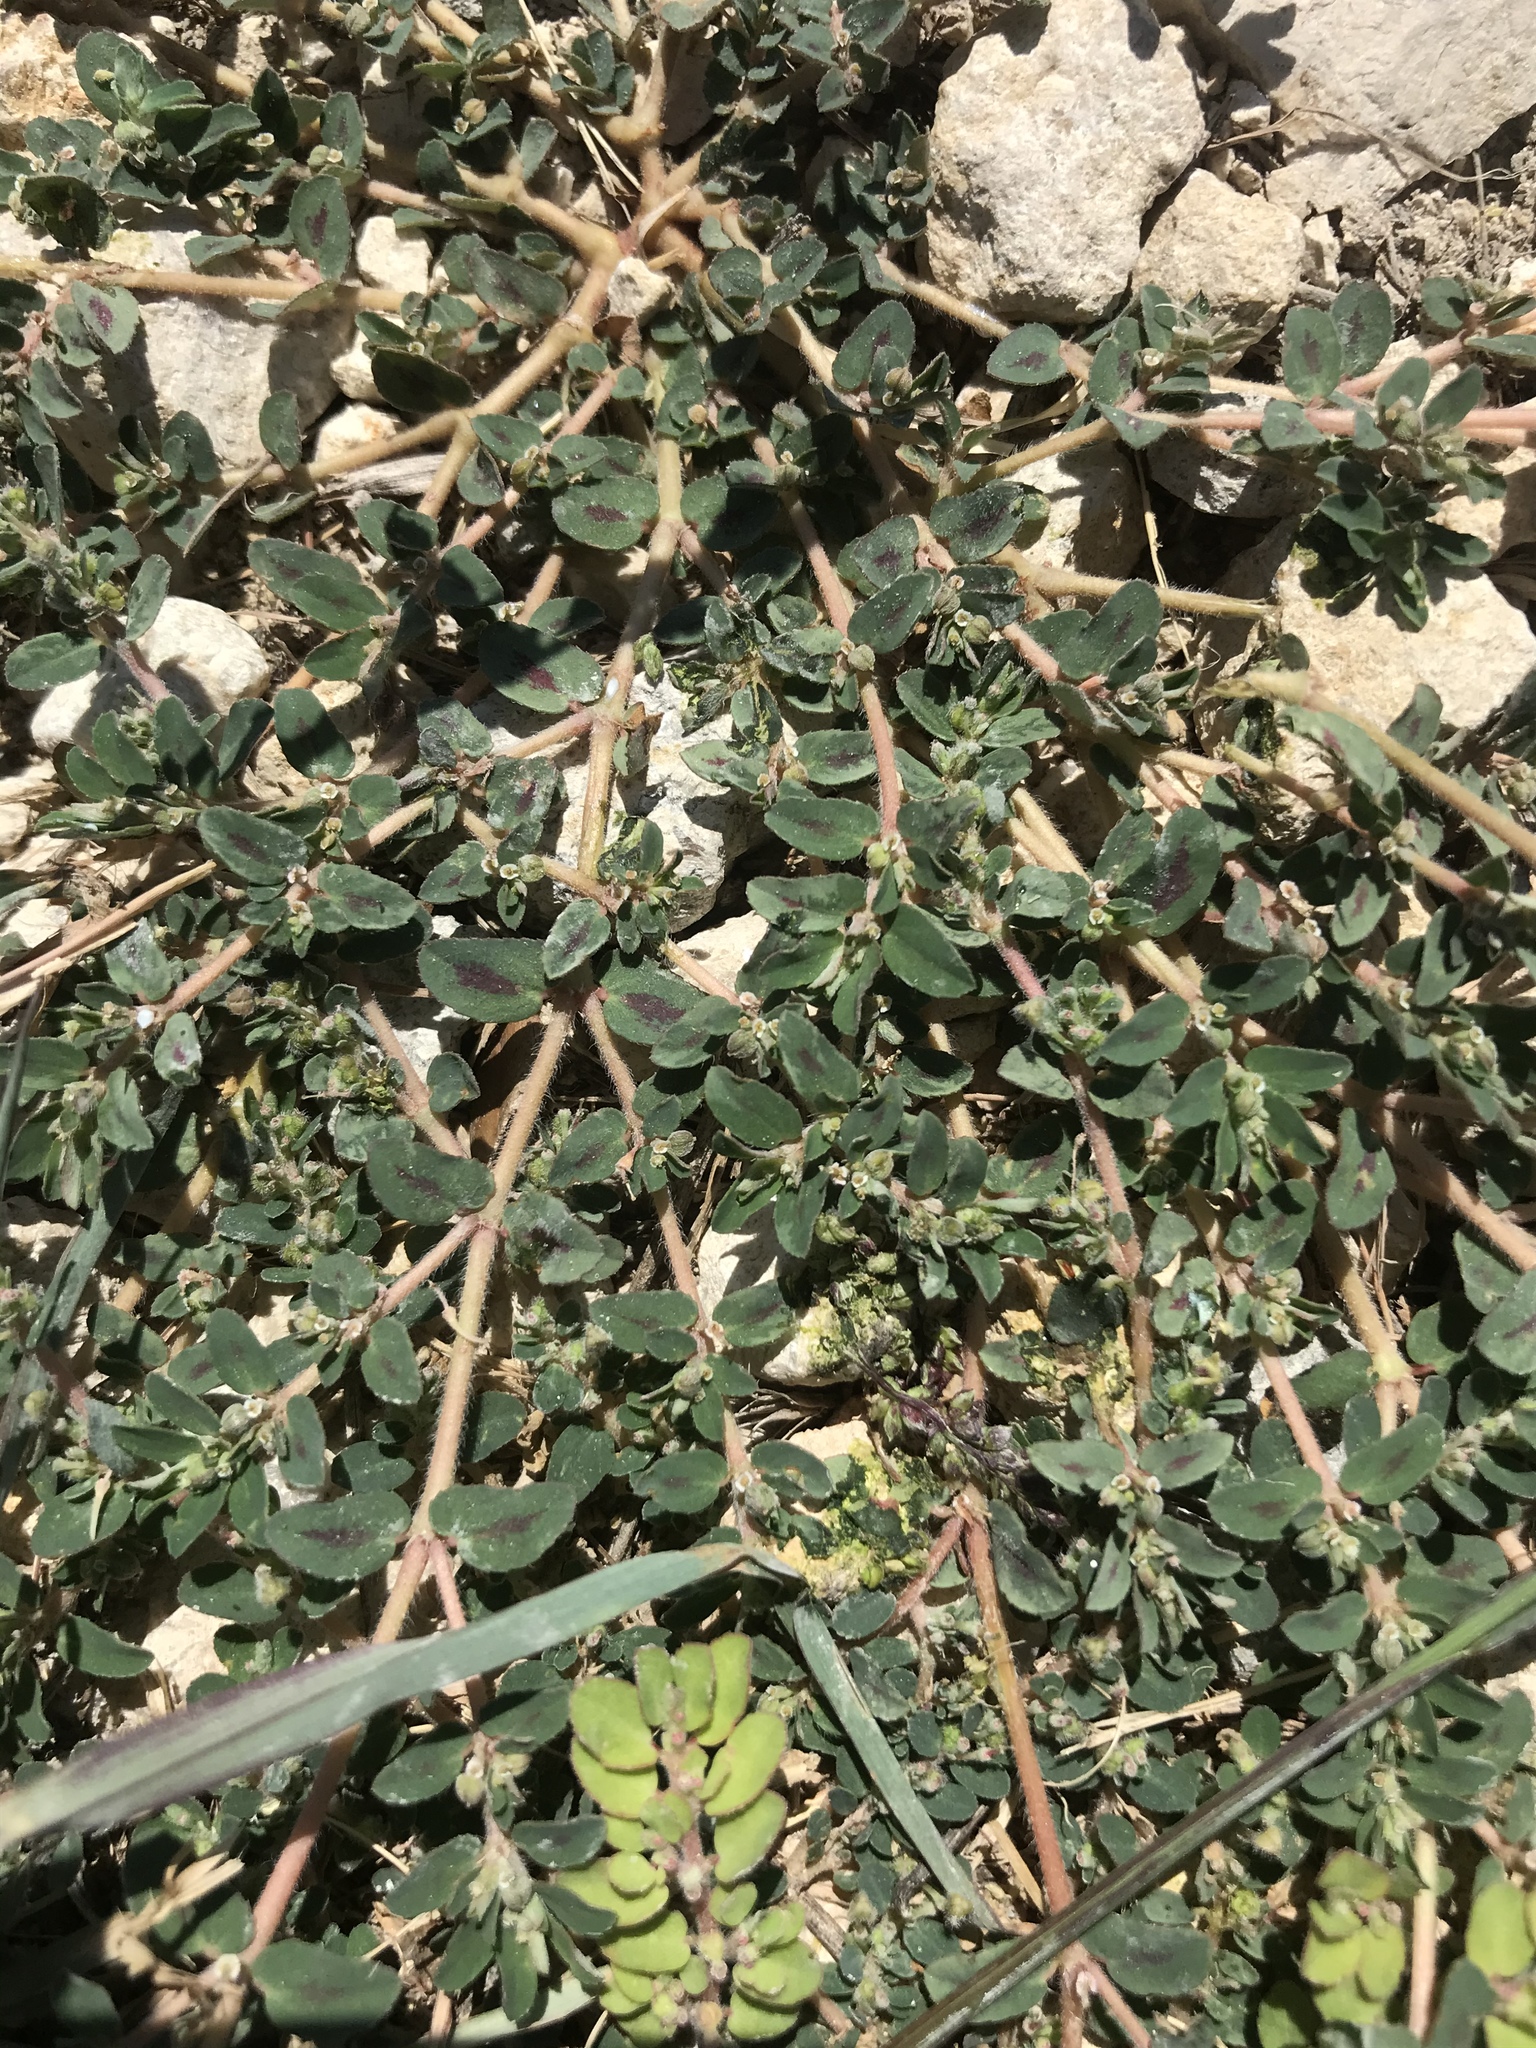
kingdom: Plantae
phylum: Tracheophyta
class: Magnoliopsida
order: Malpighiales
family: Euphorbiaceae
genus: Euphorbia
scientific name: Euphorbia maculata
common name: Spotted spurge
